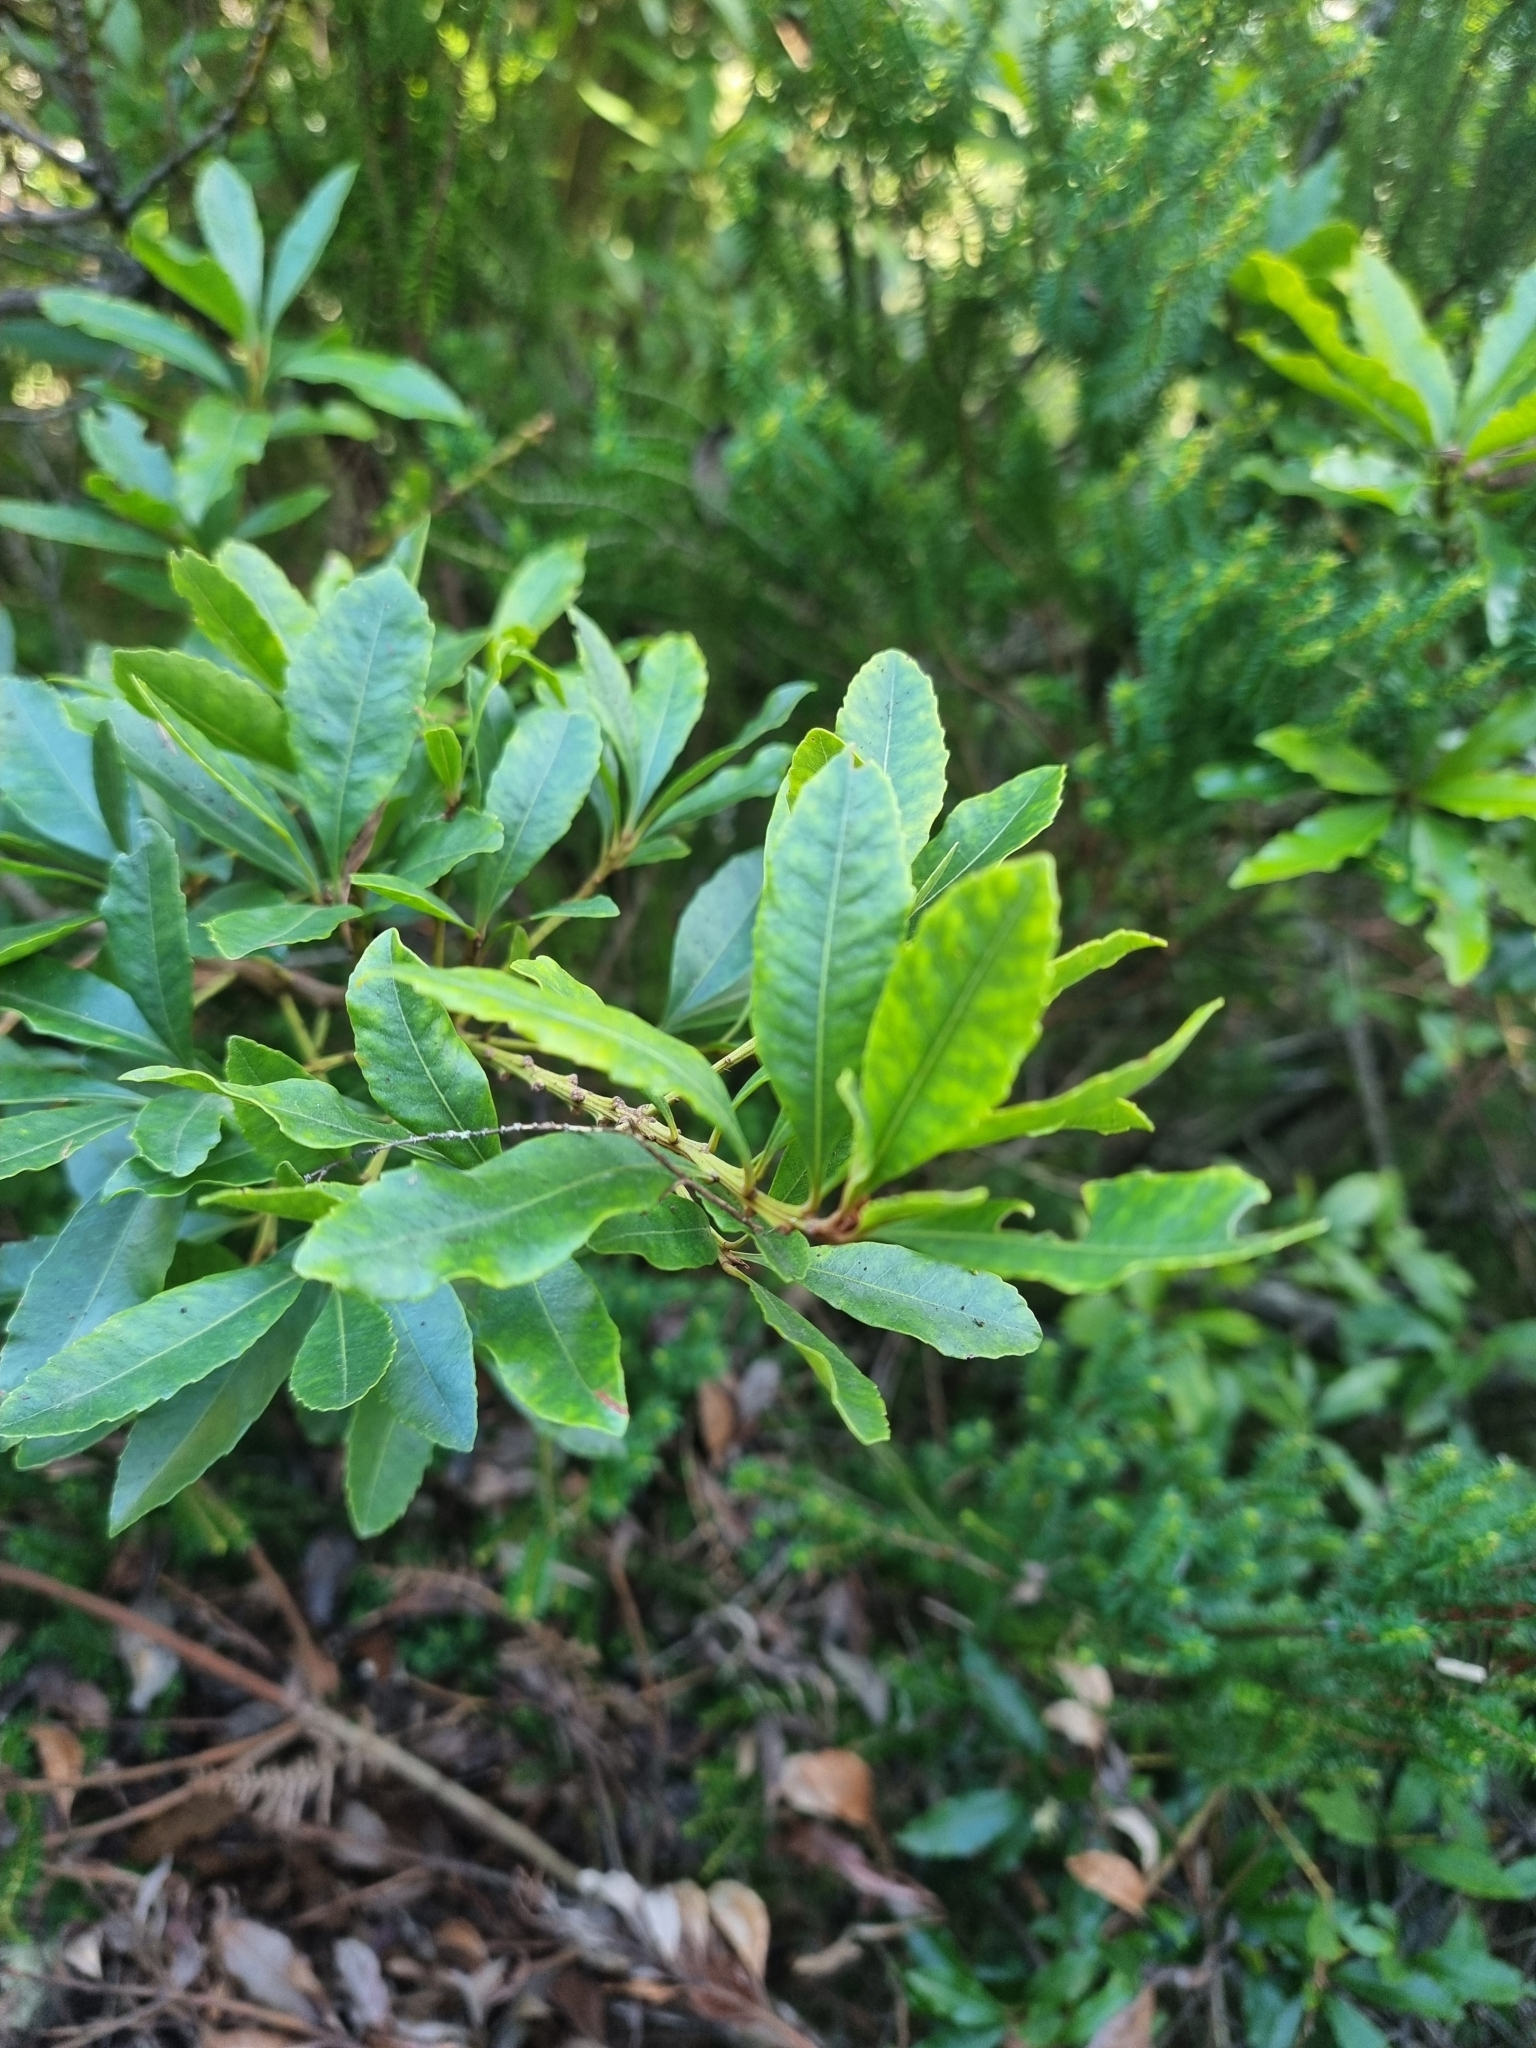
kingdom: Plantae
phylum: Tracheophyta
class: Magnoliopsida
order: Fagales
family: Myricaceae
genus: Morella
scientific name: Morella faya
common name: Firetree
